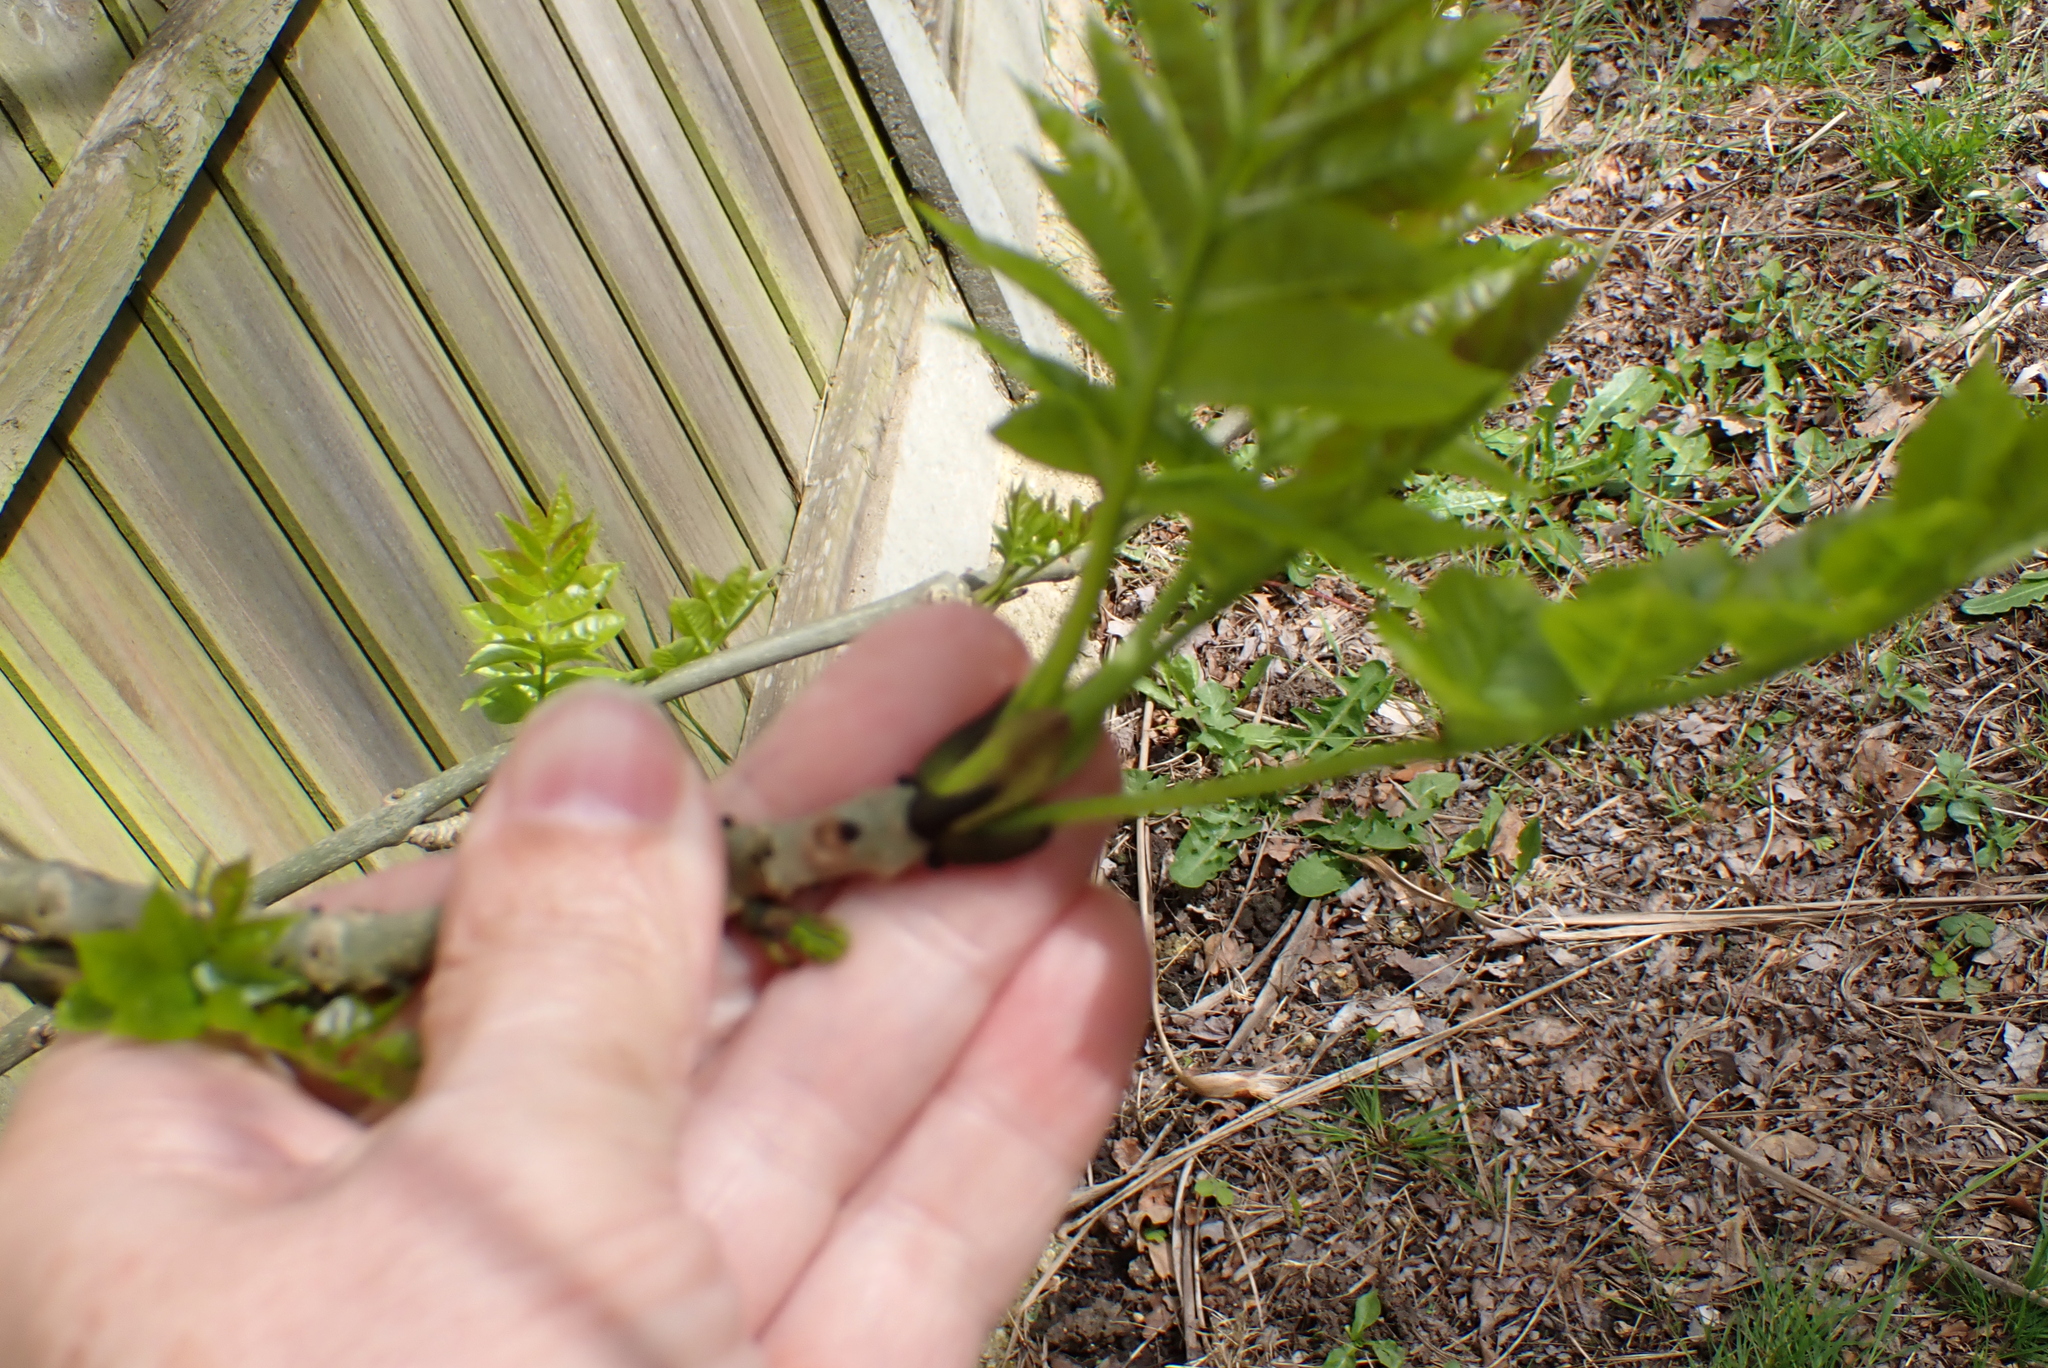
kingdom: Plantae
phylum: Tracheophyta
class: Magnoliopsida
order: Lamiales
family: Oleaceae
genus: Fraxinus
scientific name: Fraxinus excelsior
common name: European ash
